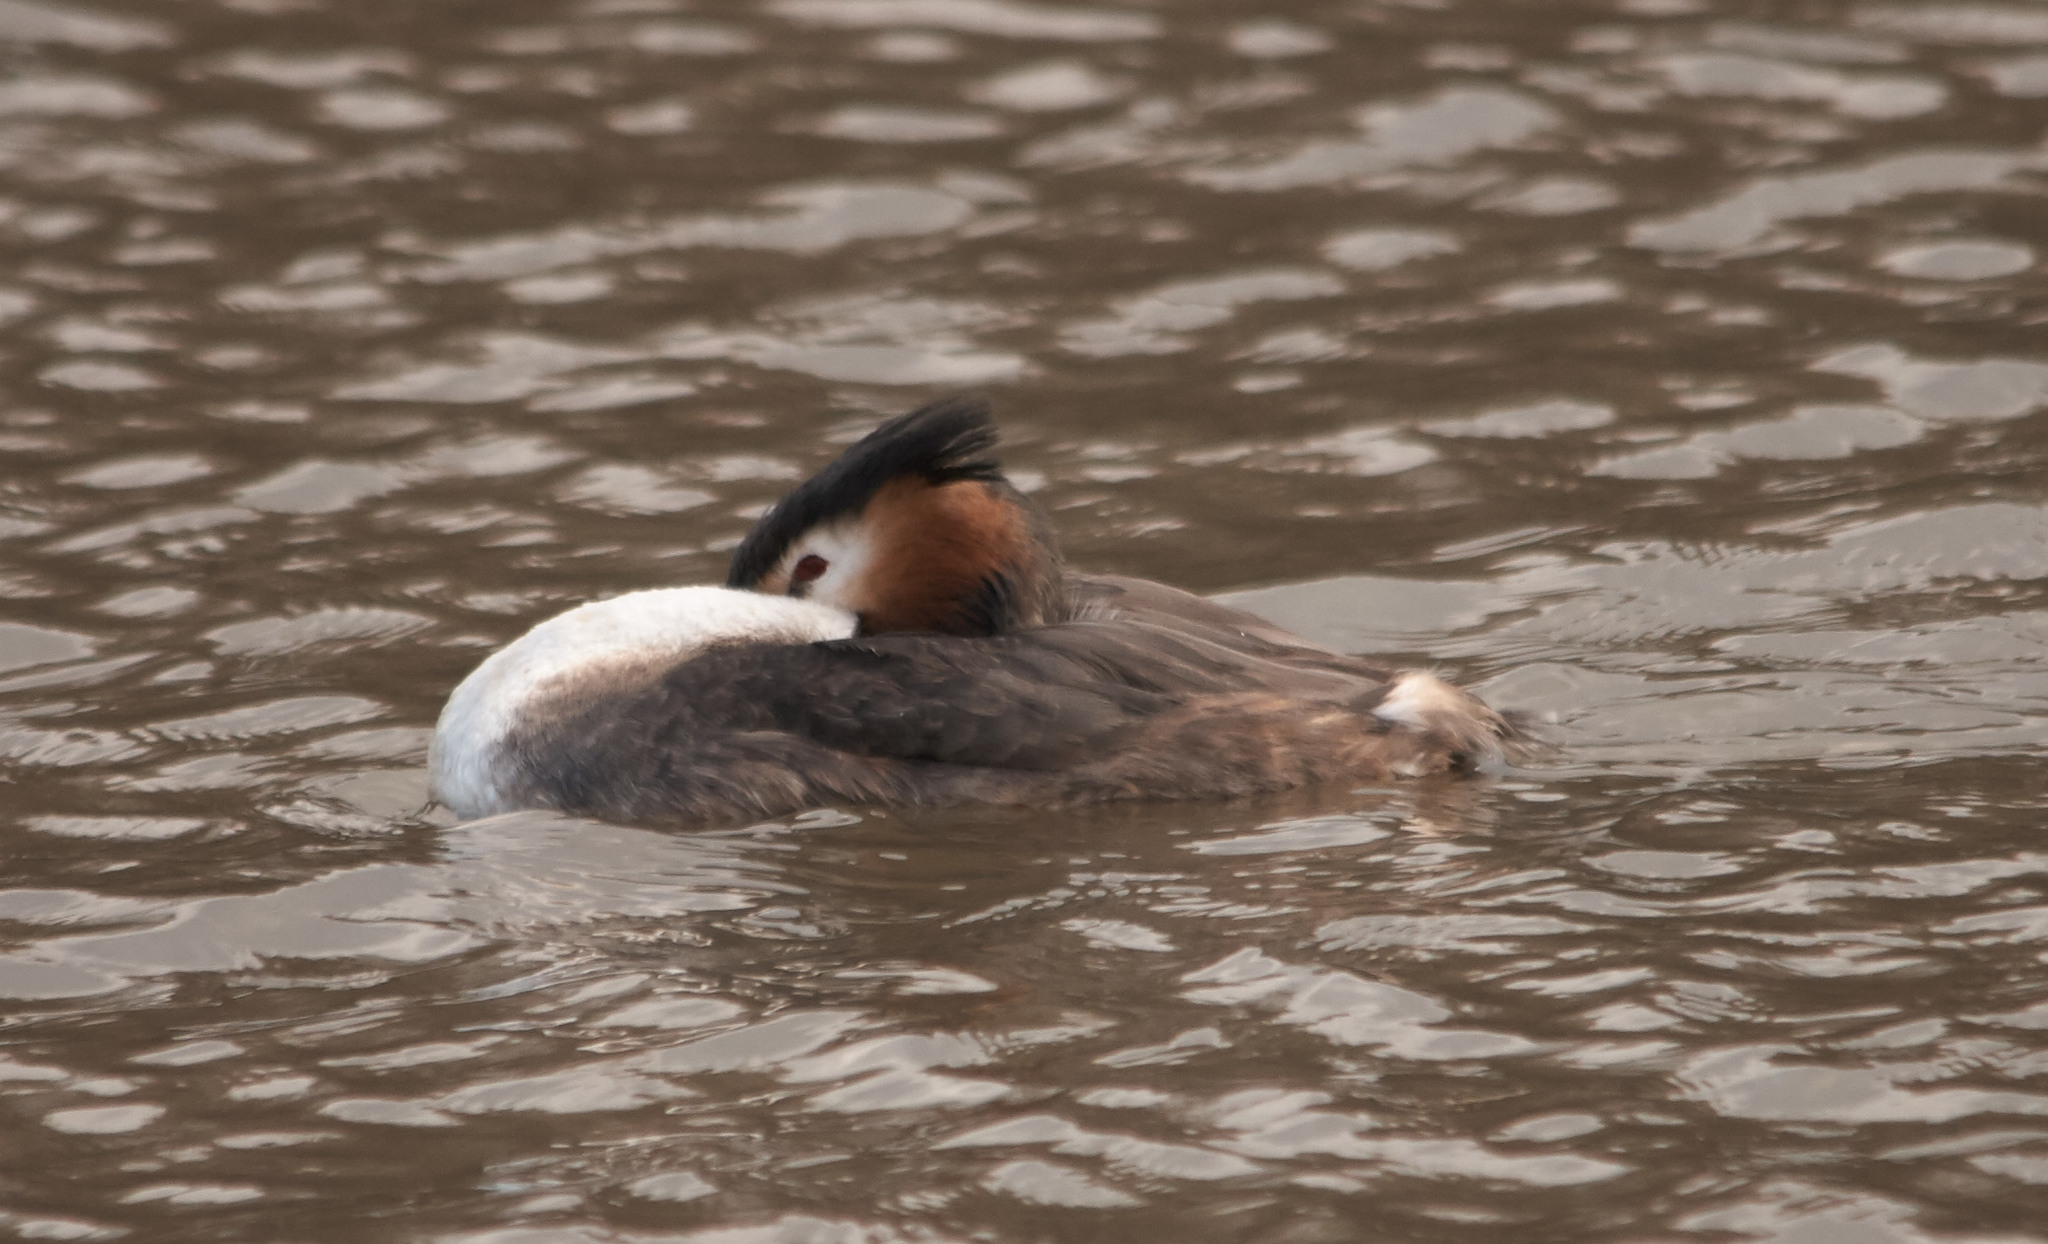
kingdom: Animalia
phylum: Chordata
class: Aves
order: Podicipediformes
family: Podicipedidae
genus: Podiceps
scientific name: Podiceps cristatus
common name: Great crested grebe
